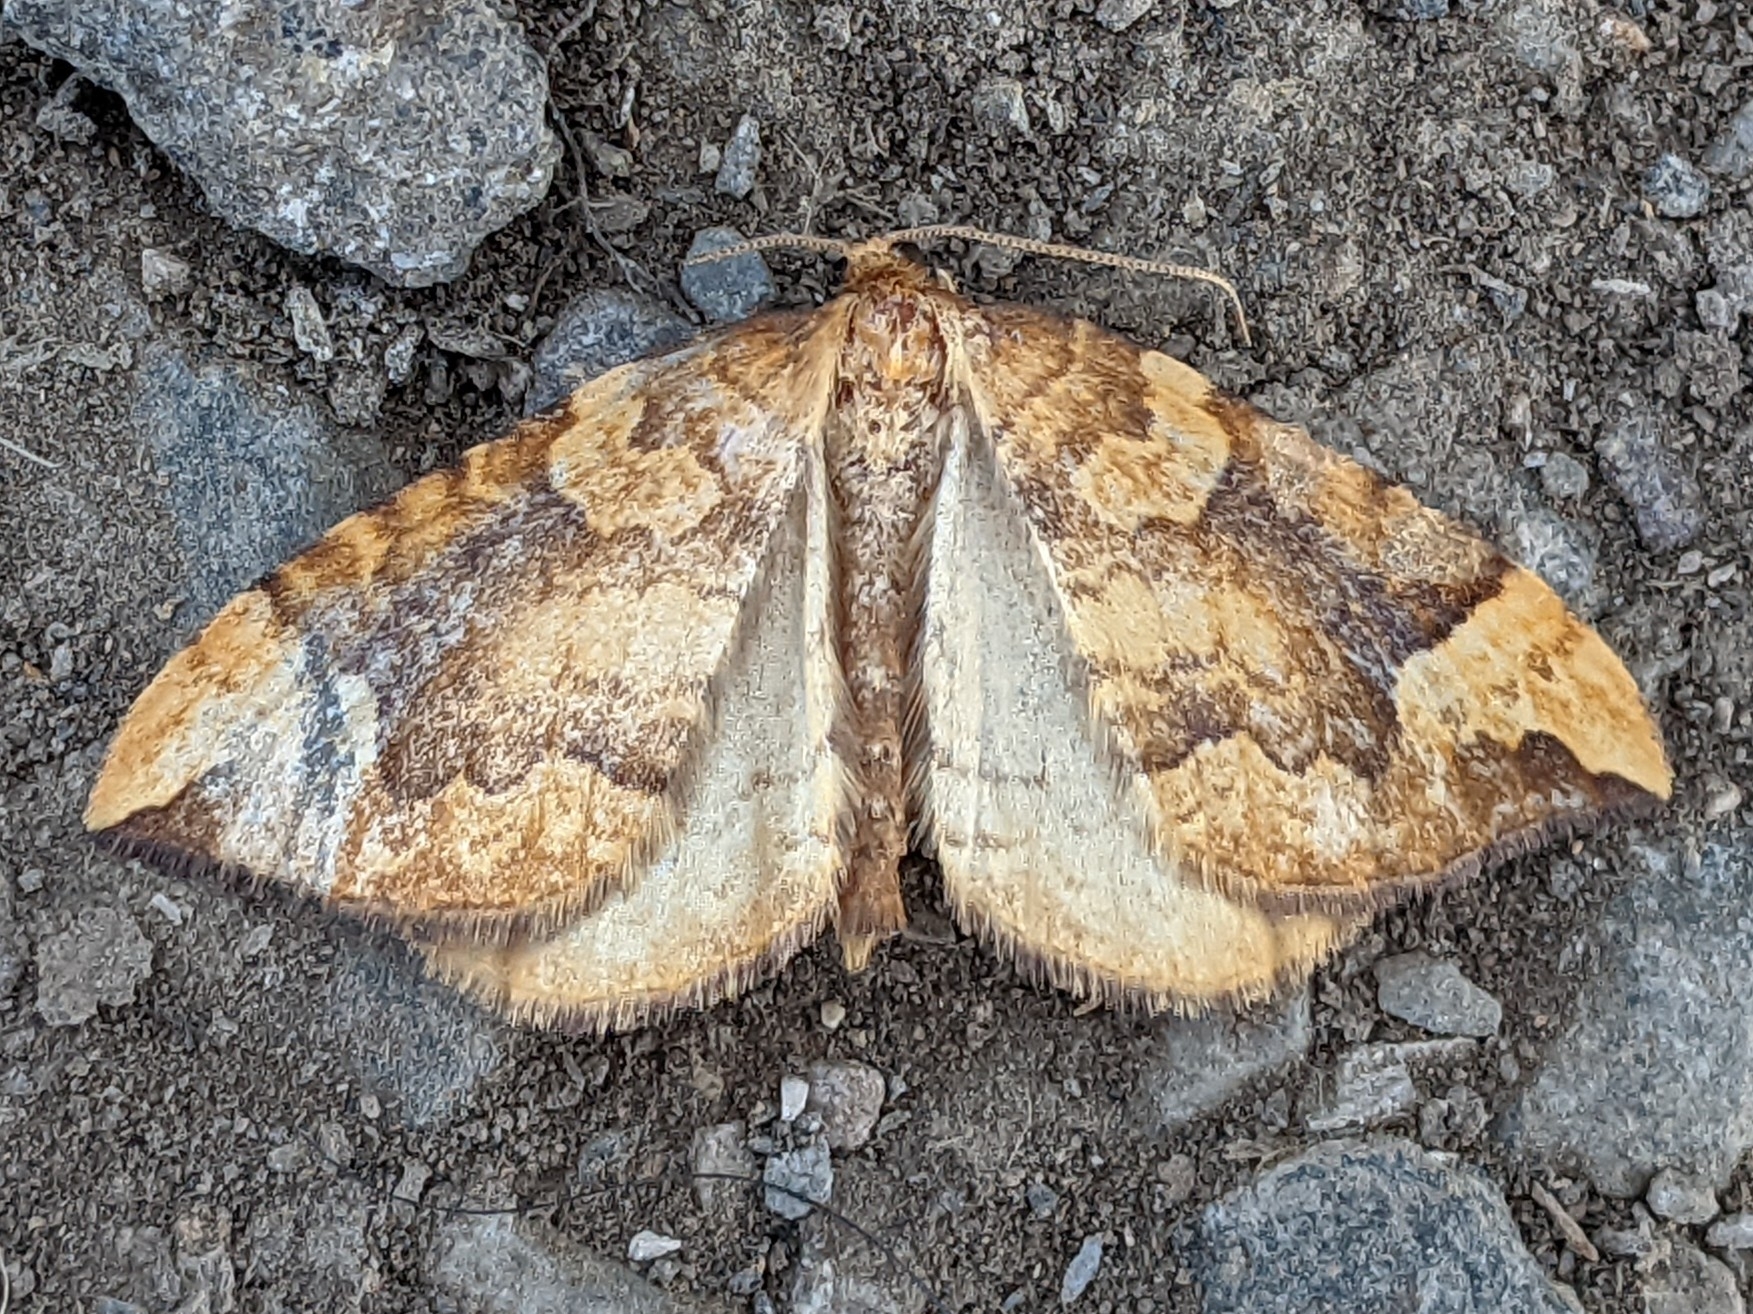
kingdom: Animalia
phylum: Arthropoda
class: Insecta
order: Lepidoptera
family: Geometridae
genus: Eulithis
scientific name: Eulithis populata
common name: Northern spinach
